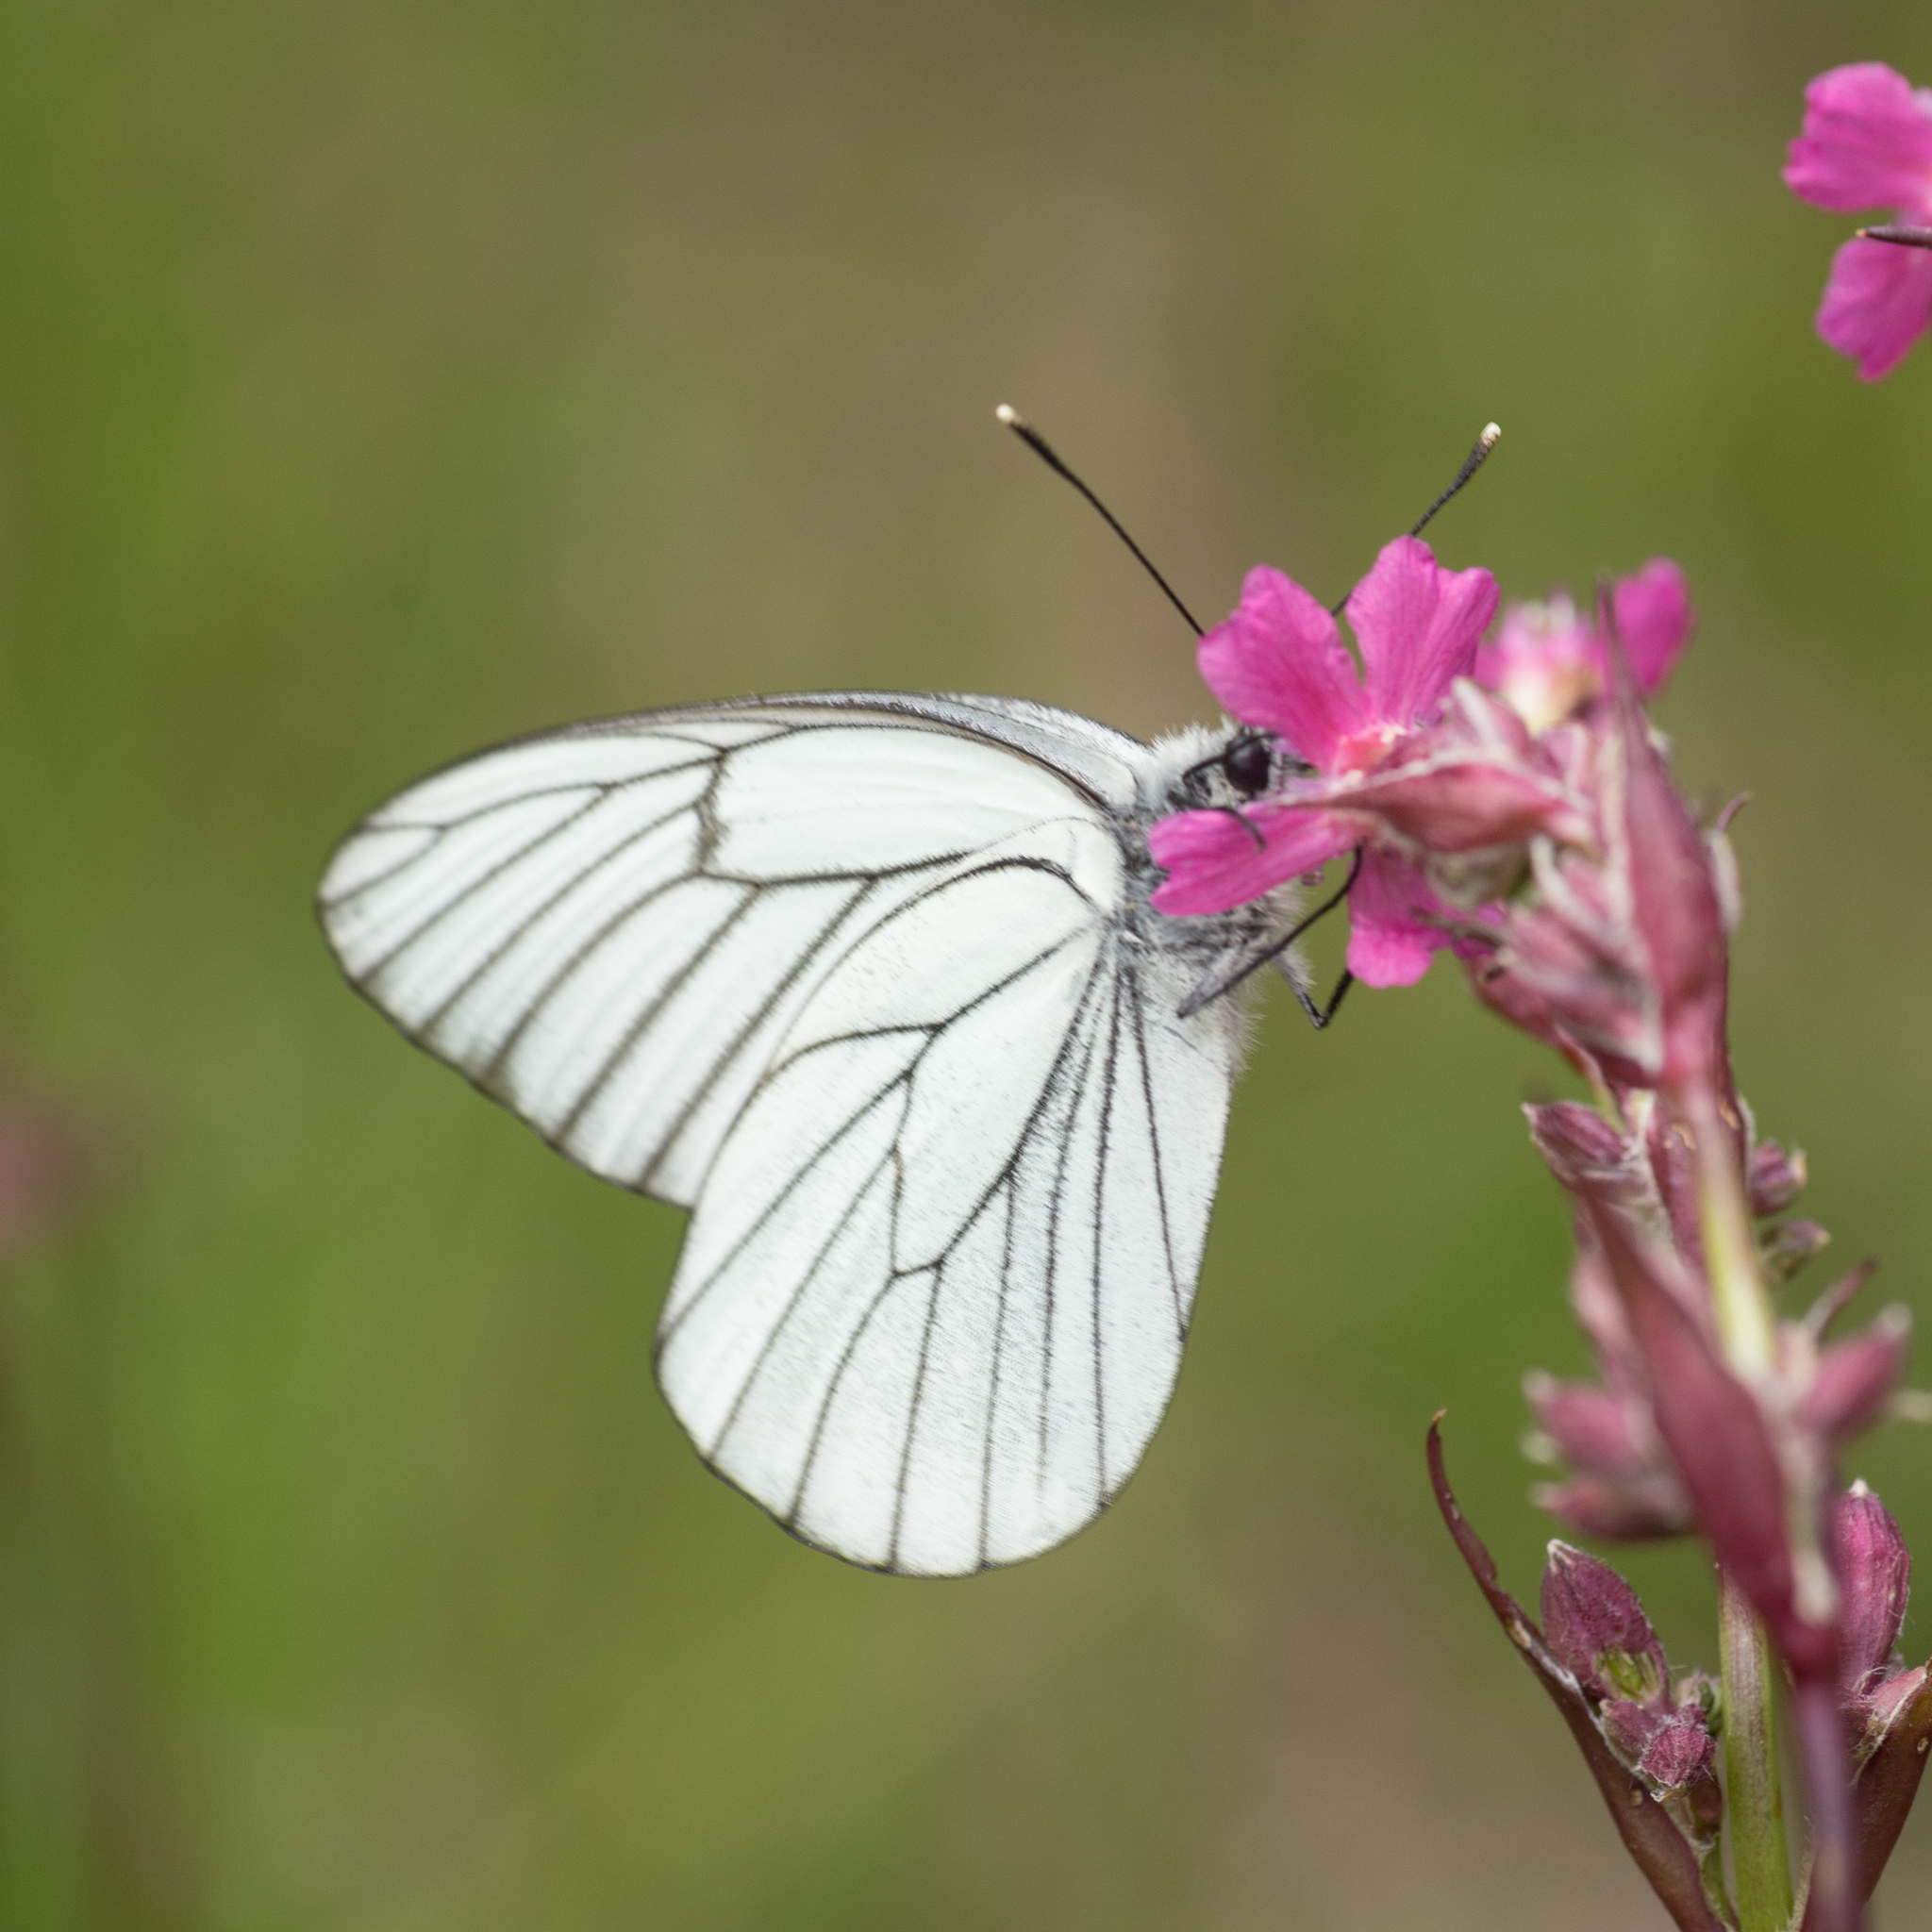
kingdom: Animalia
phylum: Arthropoda
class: Insecta
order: Lepidoptera
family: Pieridae
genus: Aporia
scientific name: Aporia crataegi
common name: Black-veined white
